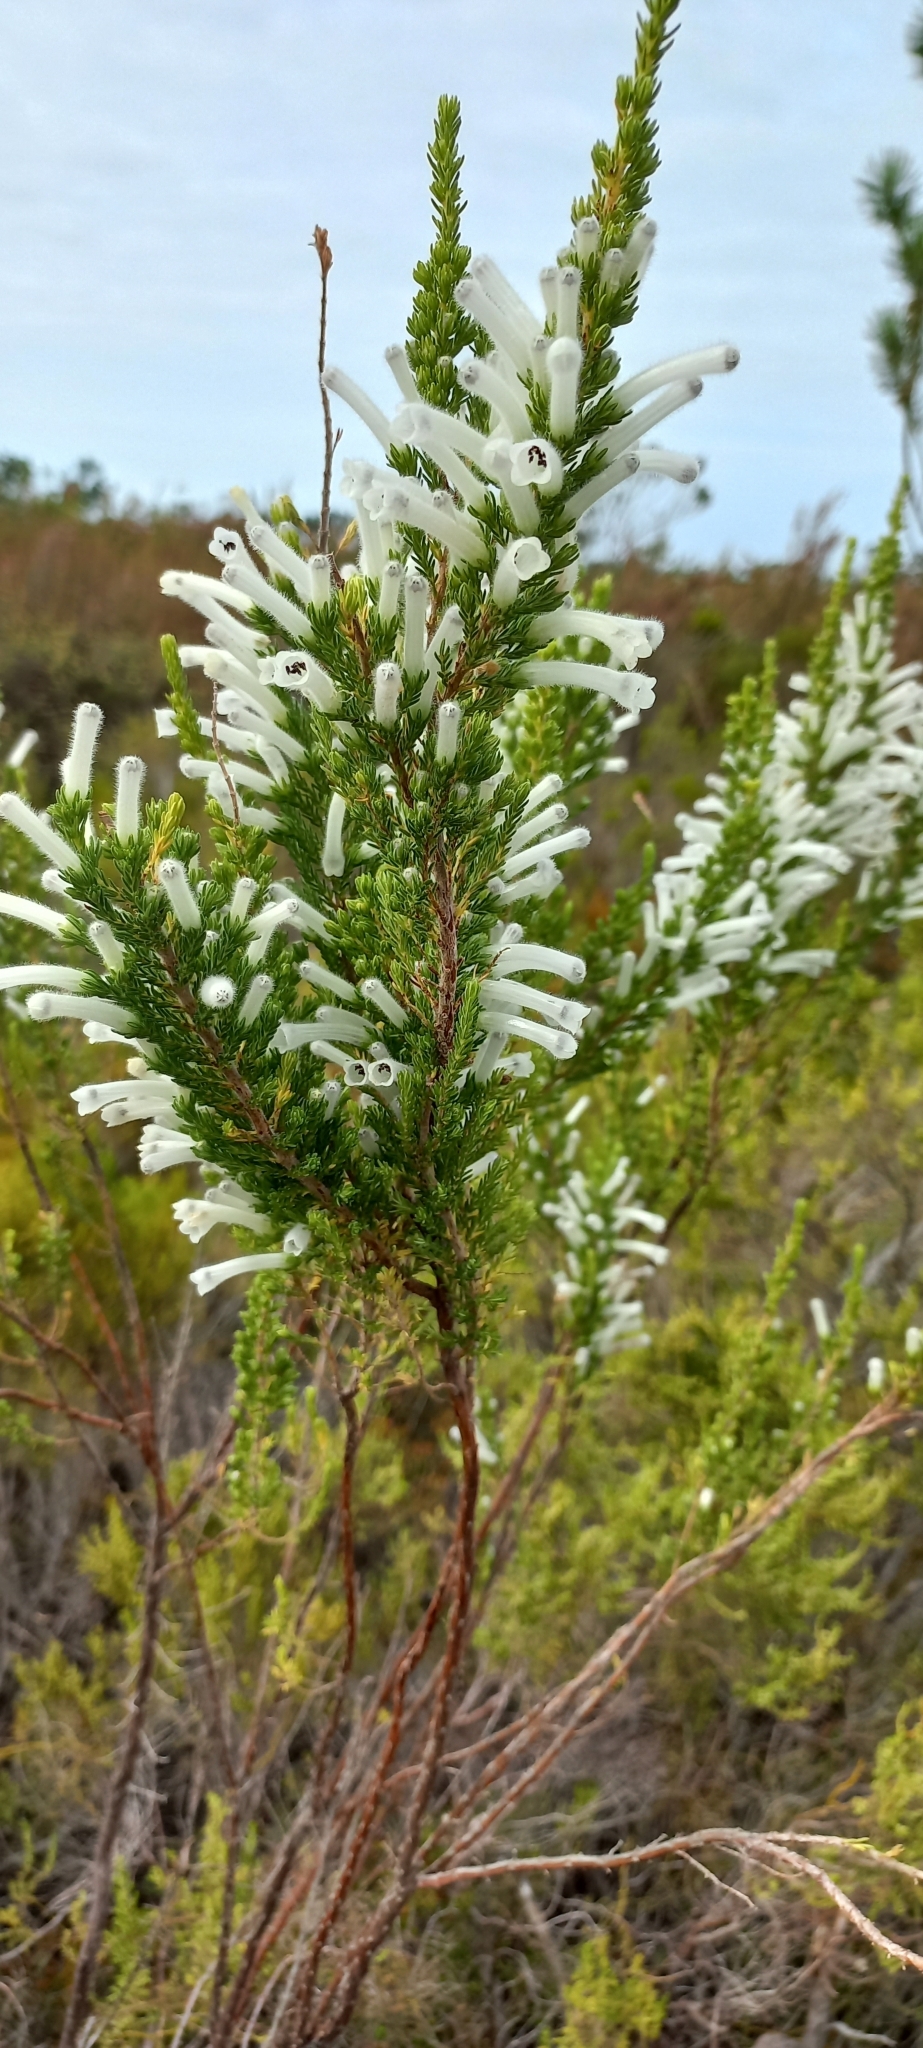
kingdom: Plantae
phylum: Tracheophyta
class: Magnoliopsida
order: Ericales
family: Ericaceae
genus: Erica
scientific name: Erica perspicua
